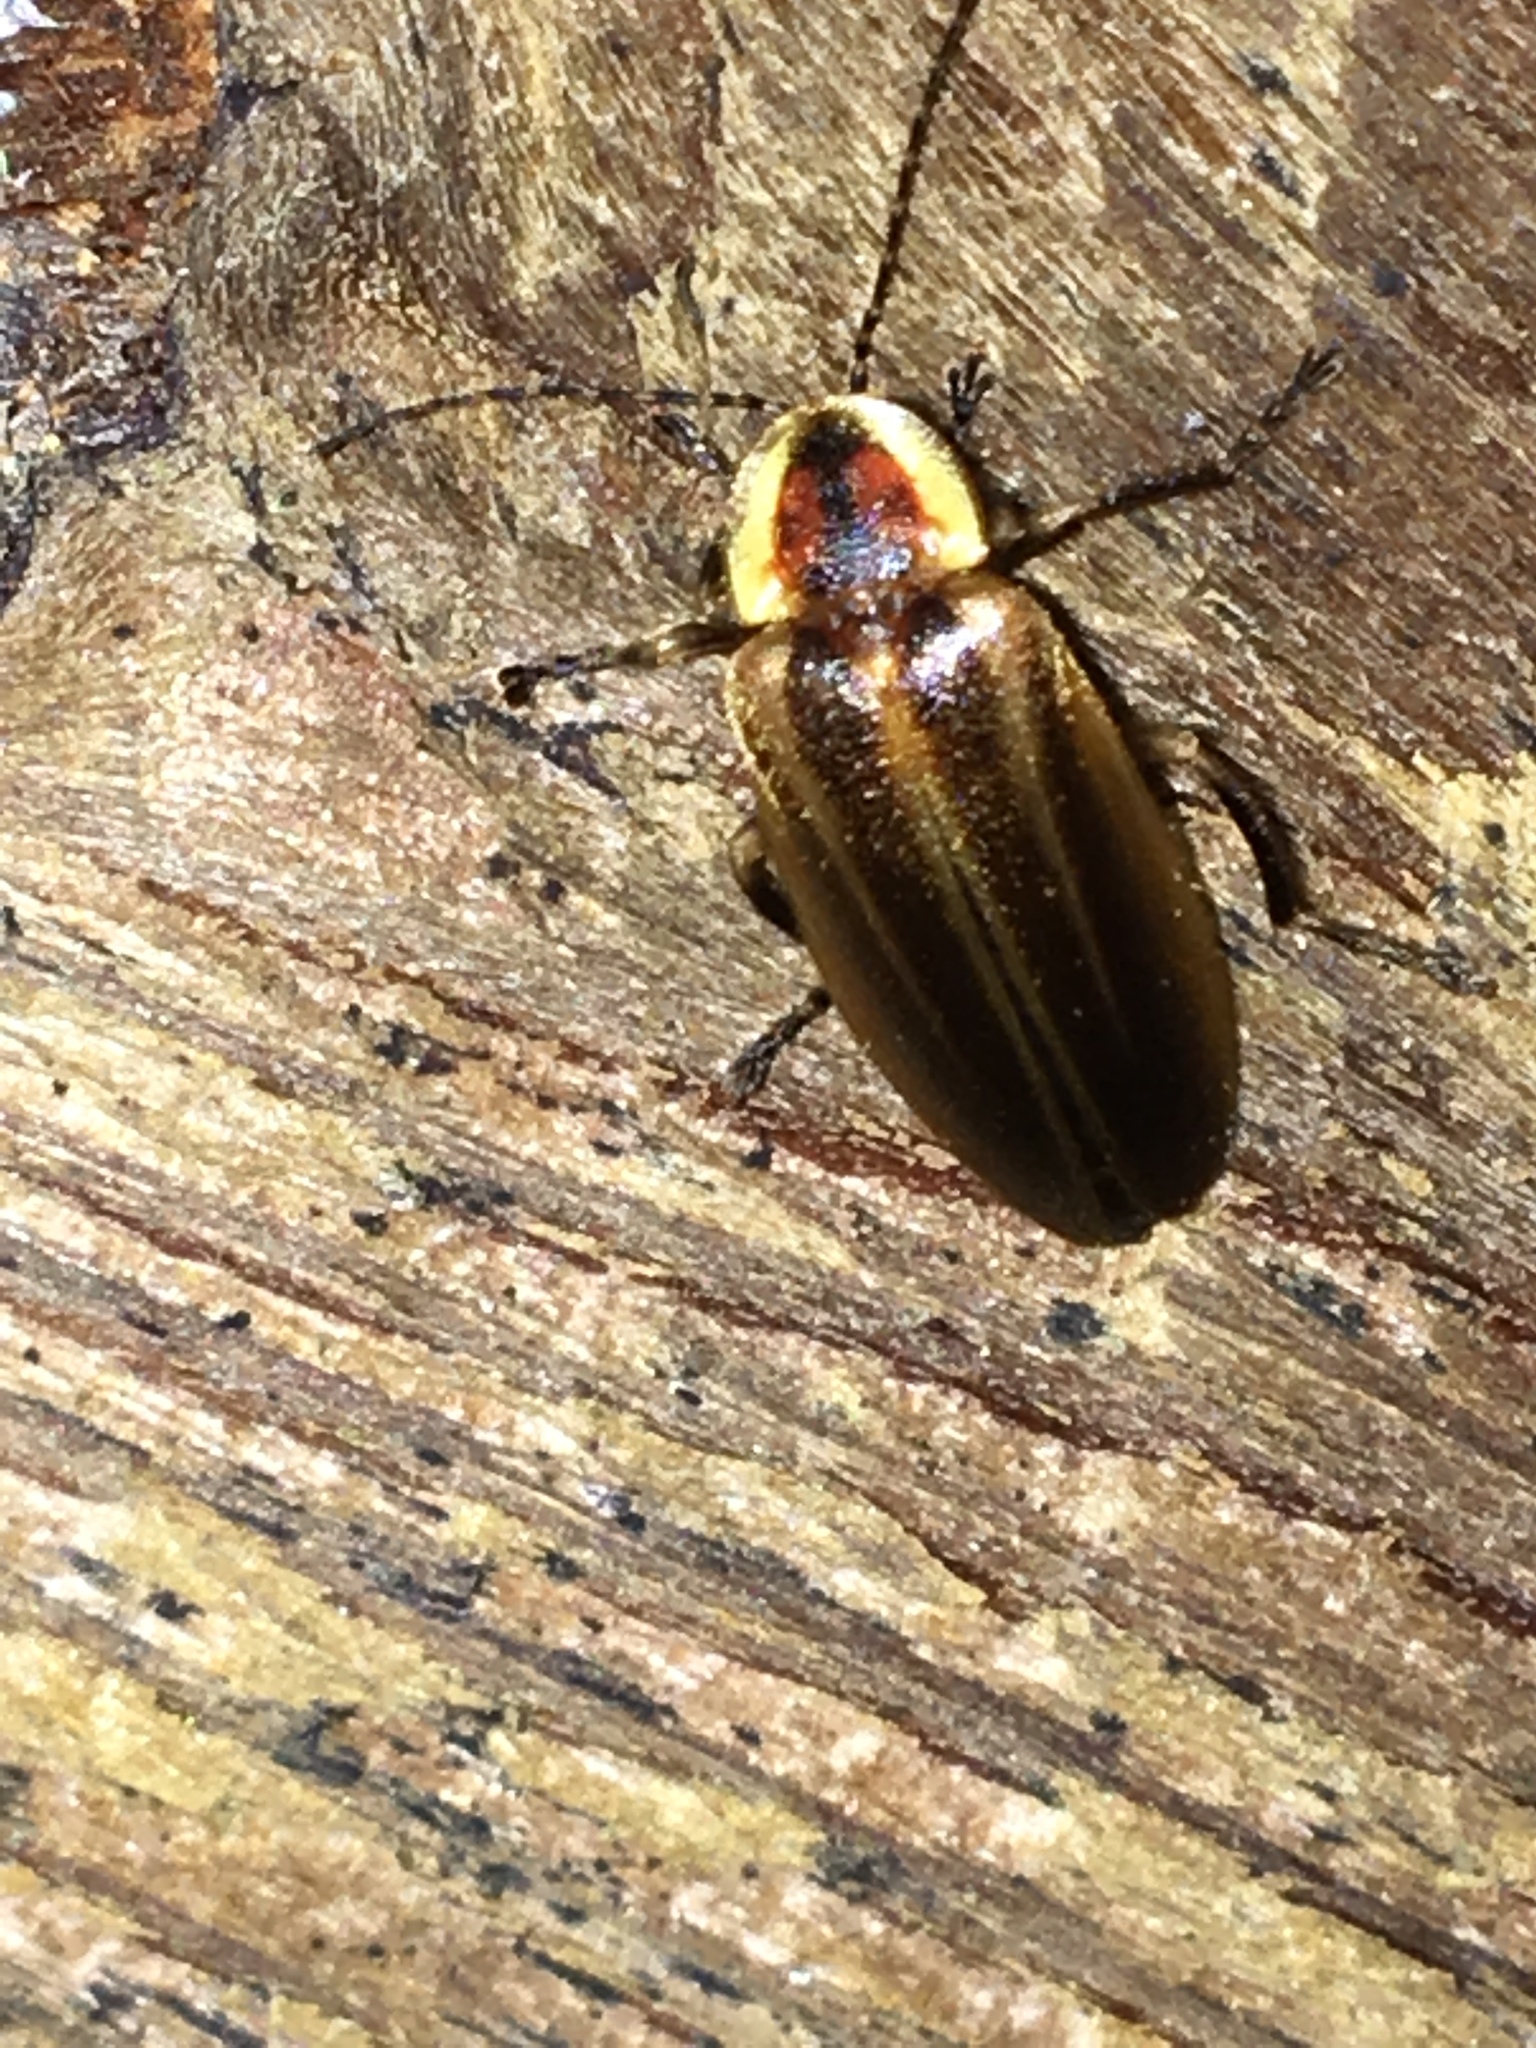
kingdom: Animalia
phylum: Arthropoda
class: Insecta
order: Coleoptera
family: Lampyridae
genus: Photuris
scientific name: Photuris
